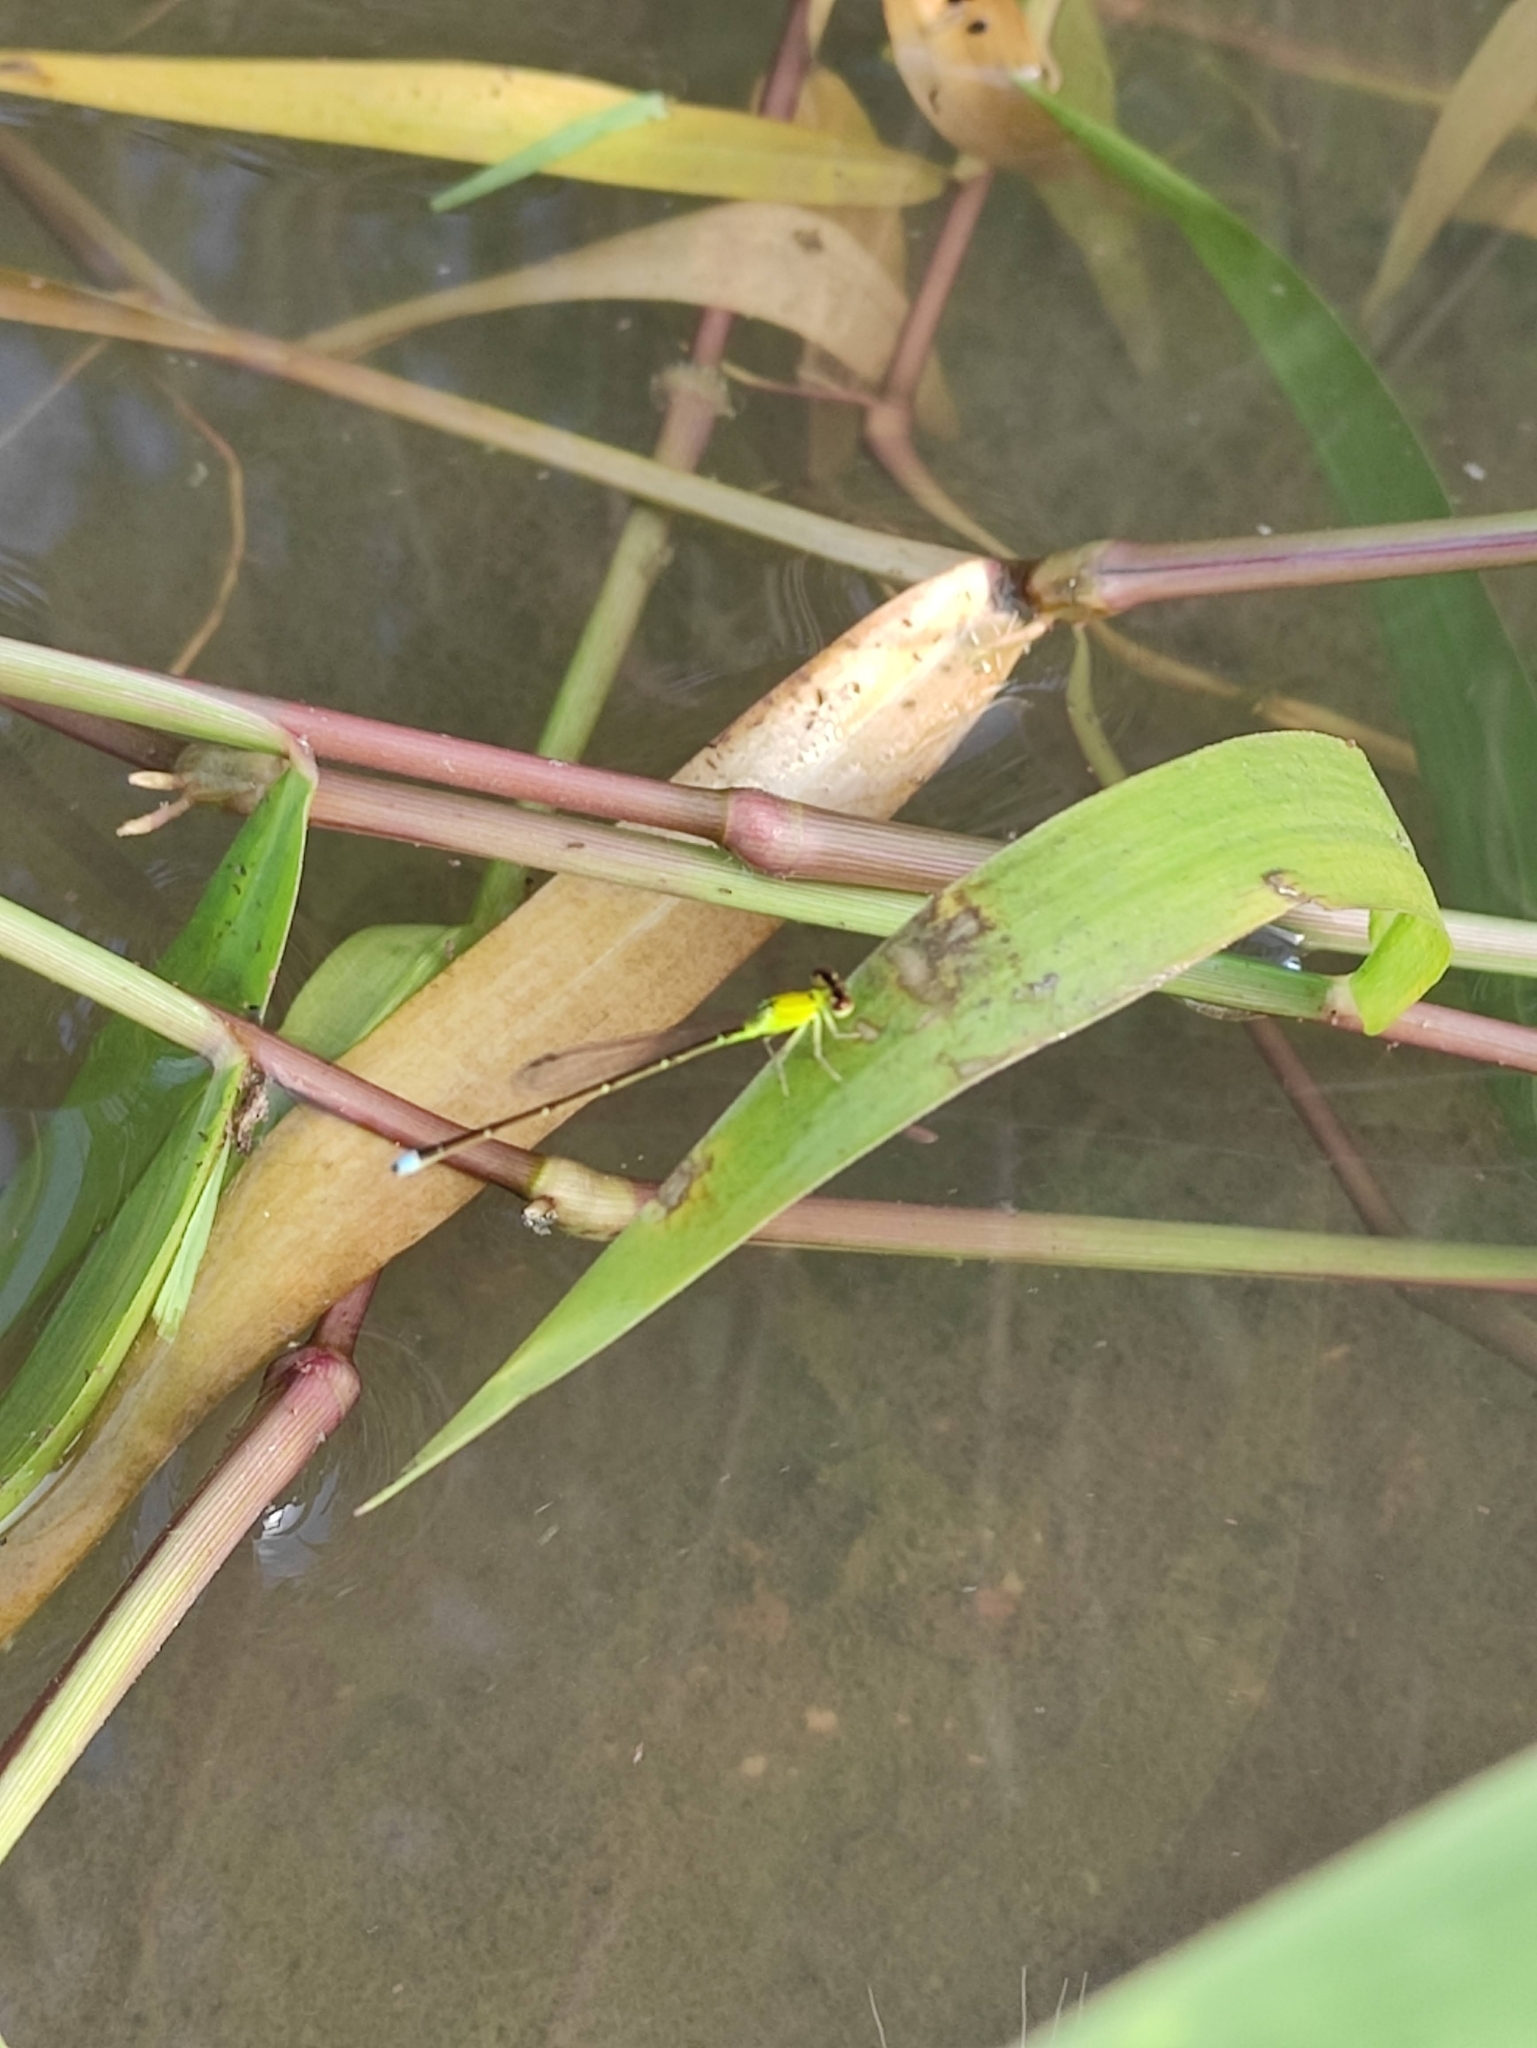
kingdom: Animalia
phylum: Arthropoda
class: Insecta
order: Odonata
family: Coenagrionidae
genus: Ischnura
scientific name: Ischnura capreolus
